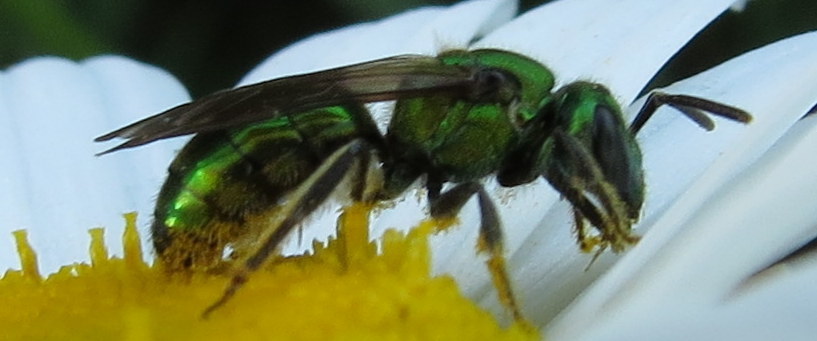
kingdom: Animalia
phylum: Arthropoda
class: Insecta
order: Hymenoptera
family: Halictidae
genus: Augochlora
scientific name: Augochlora pura
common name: Pure green sweat bee
